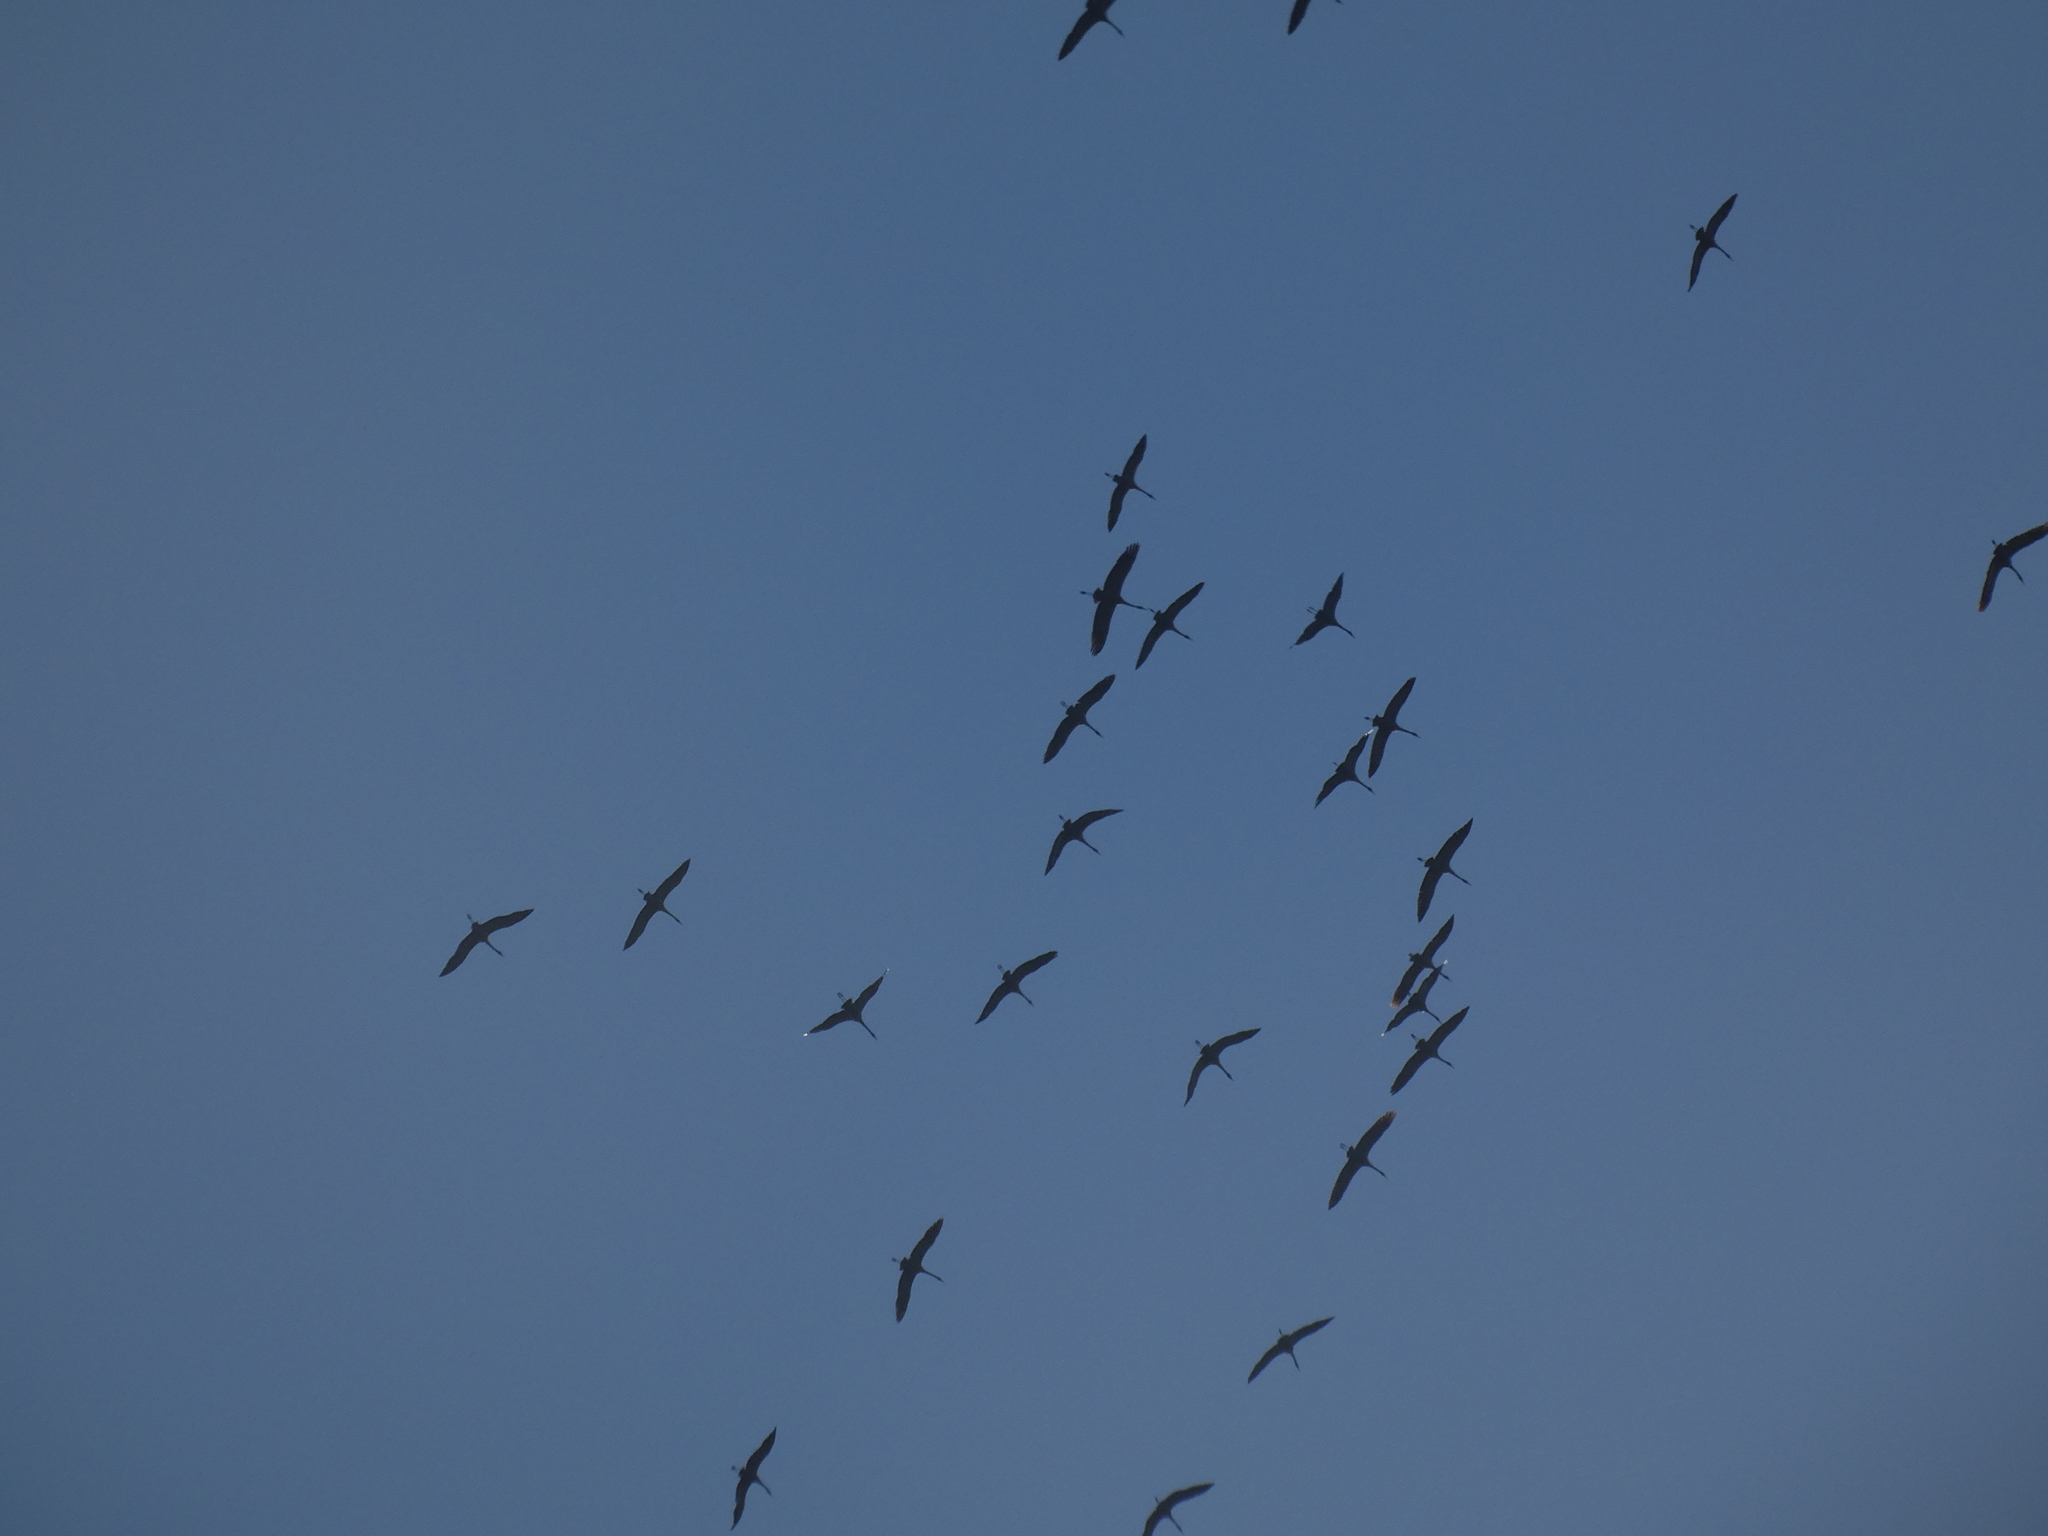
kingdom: Animalia
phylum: Chordata
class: Aves
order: Gruiformes
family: Gruidae
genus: Grus
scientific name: Grus grus
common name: Common crane
